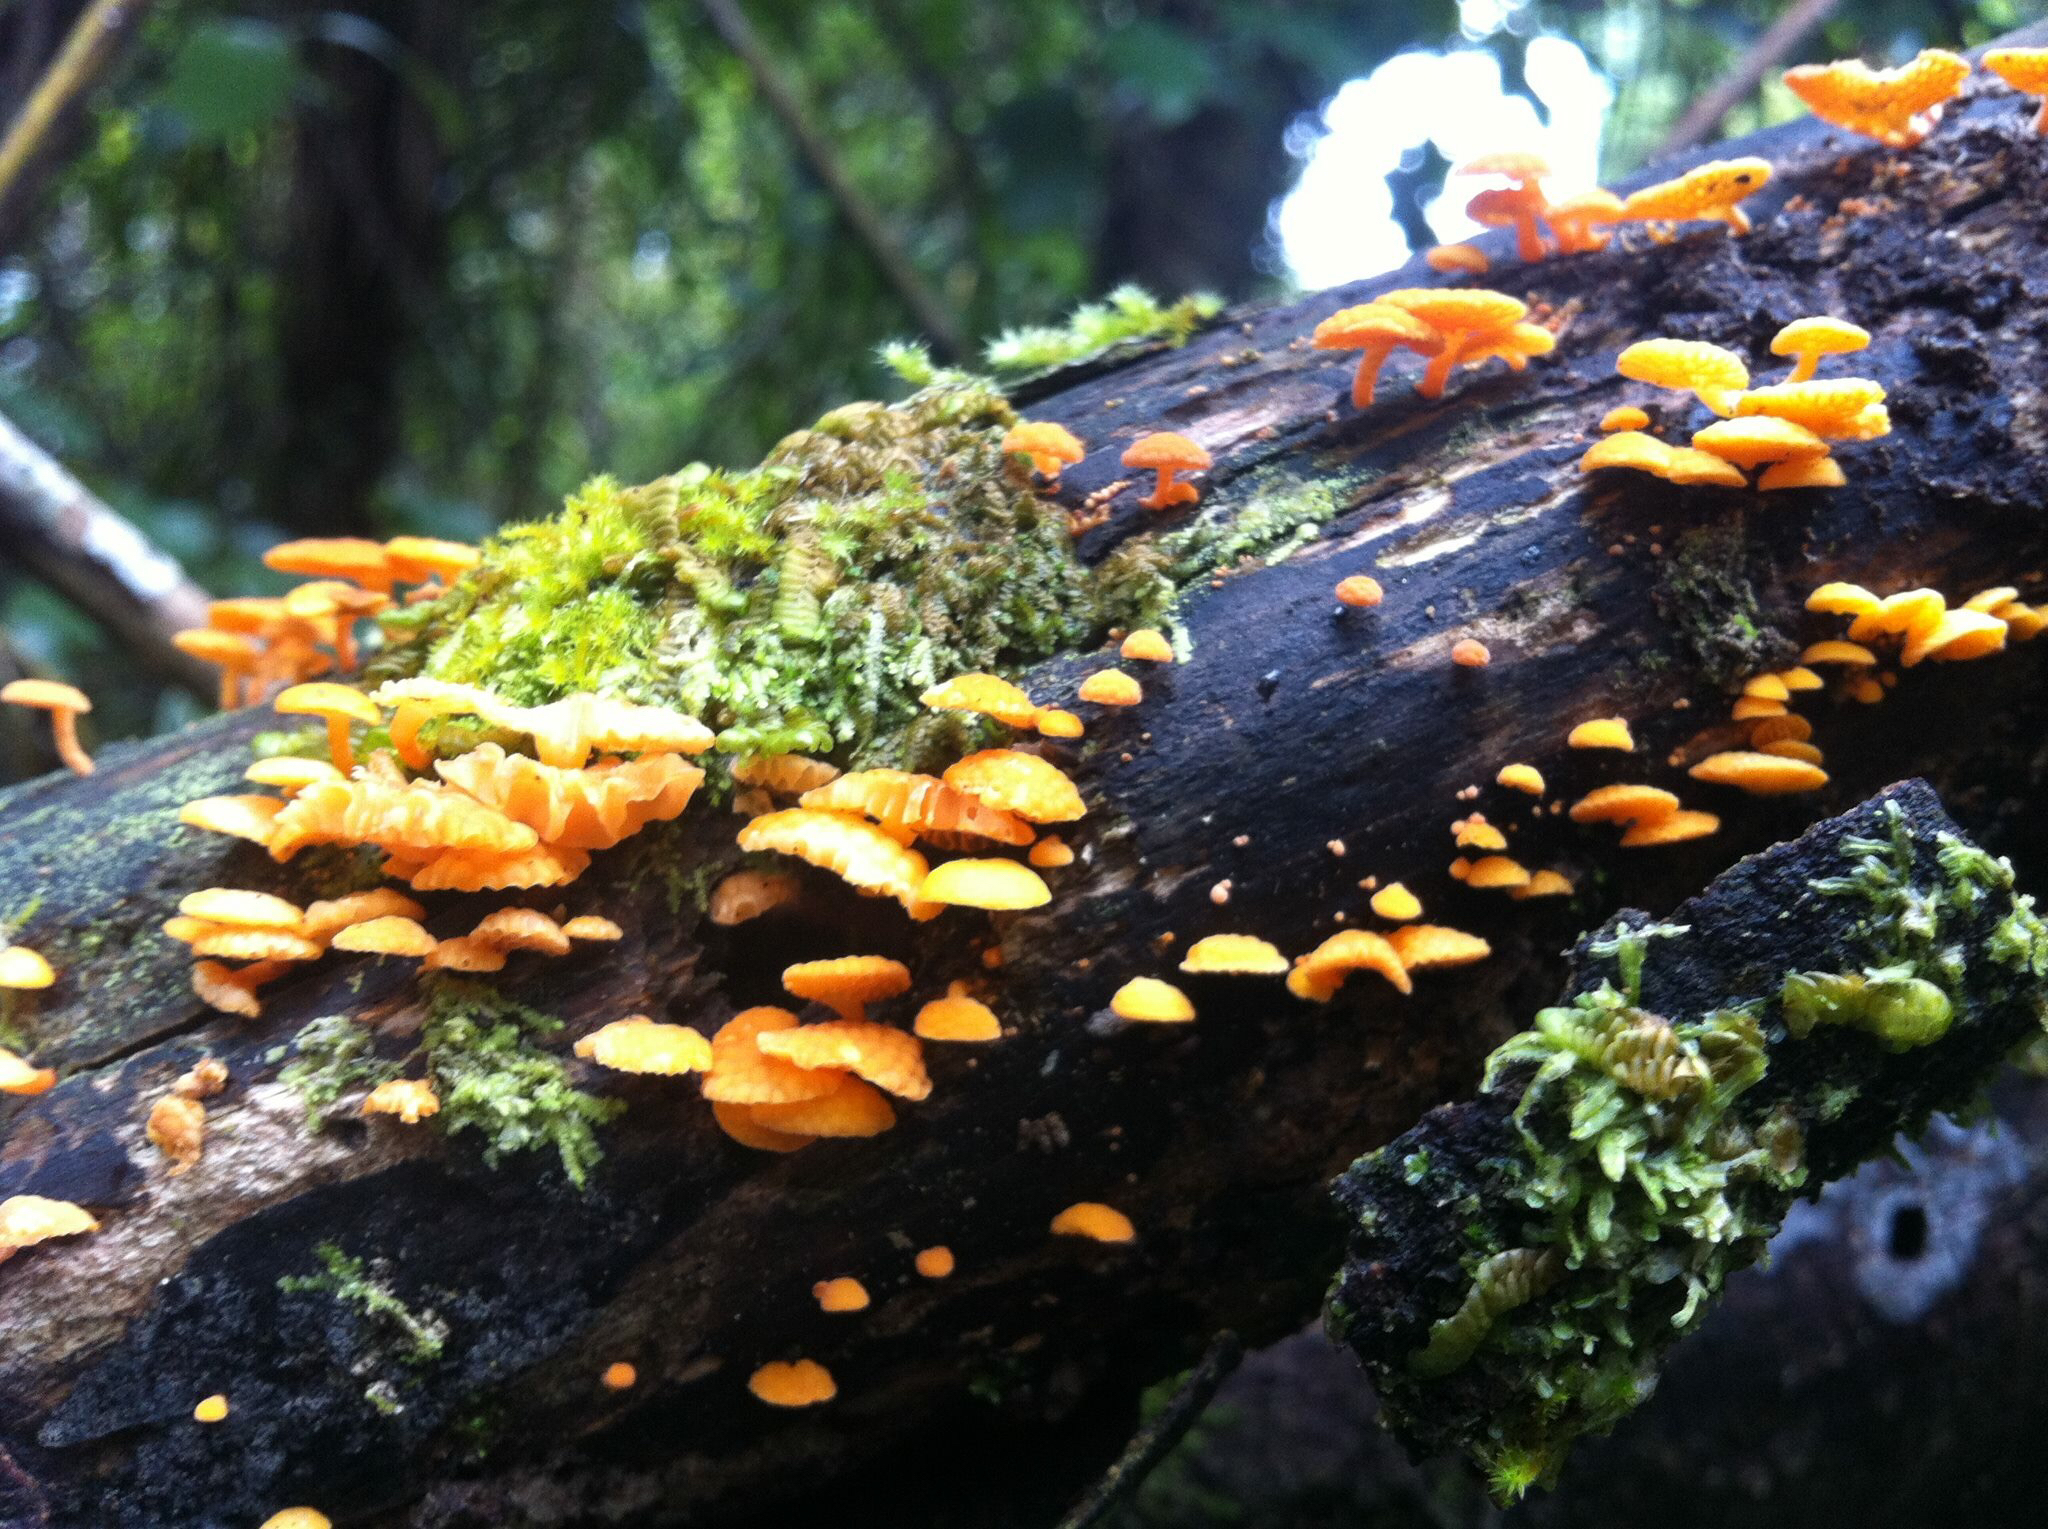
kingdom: Fungi
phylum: Basidiomycota
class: Agaricomycetes
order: Agaricales
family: Mycenaceae
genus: Favolaschia
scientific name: Favolaschia claudopus
